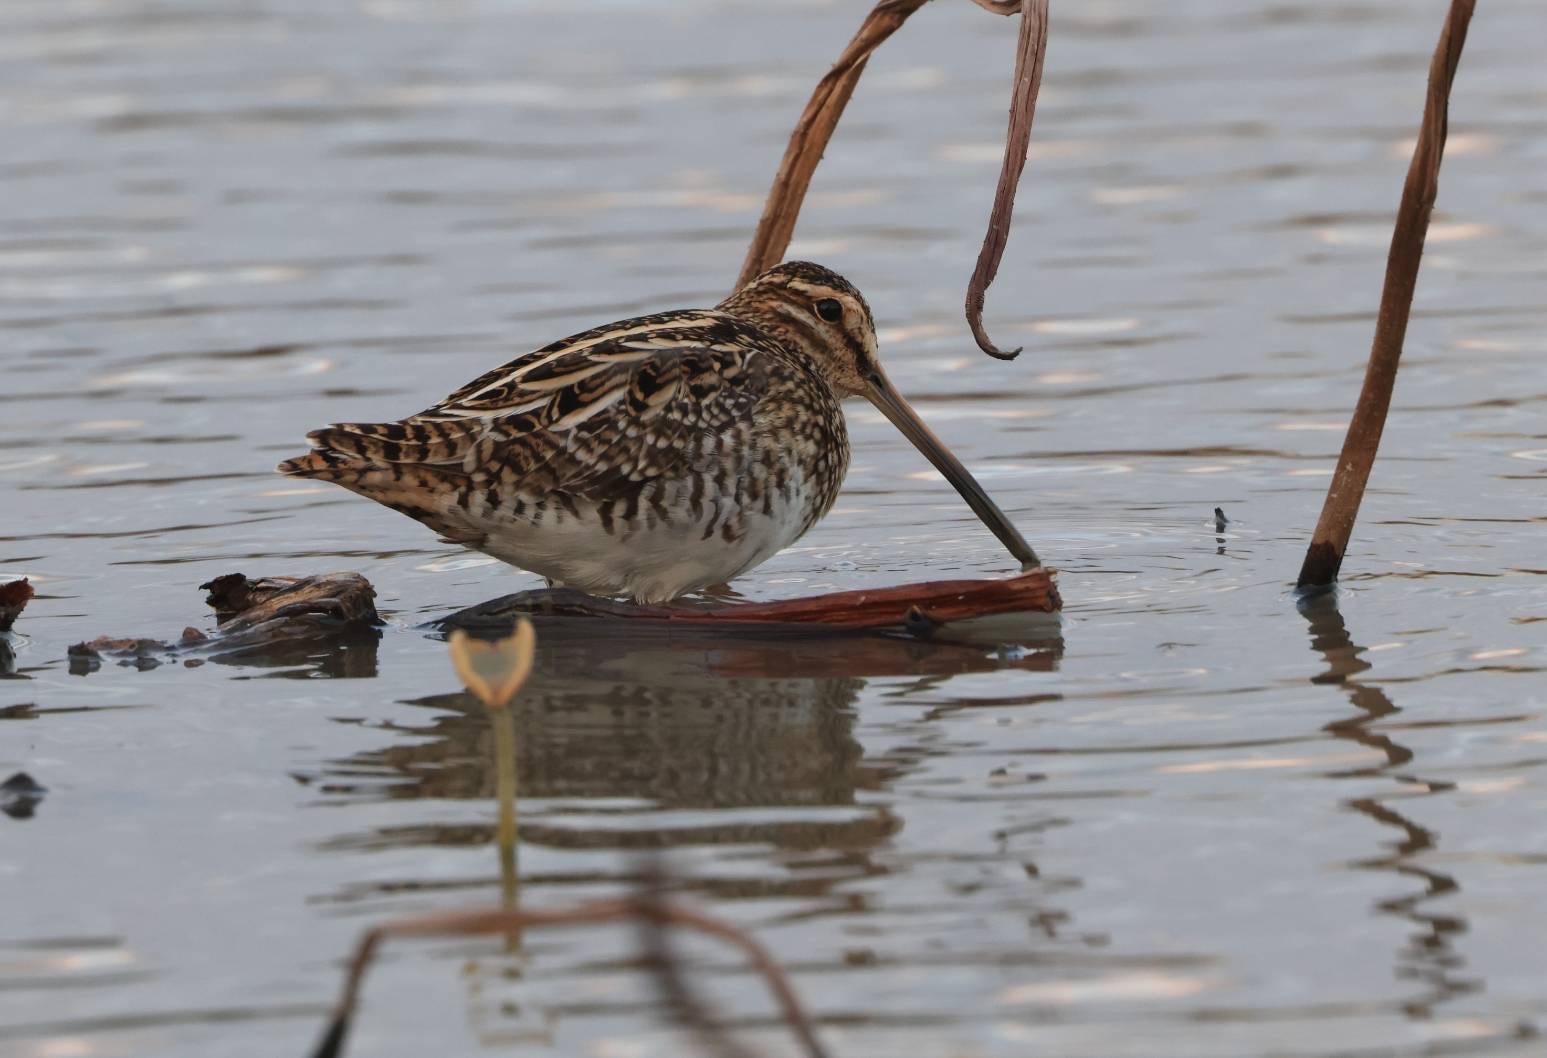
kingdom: Animalia
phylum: Chordata
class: Aves
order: Charadriiformes
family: Scolopacidae
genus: Gallinago
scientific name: Gallinago gallinago
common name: Common snipe
